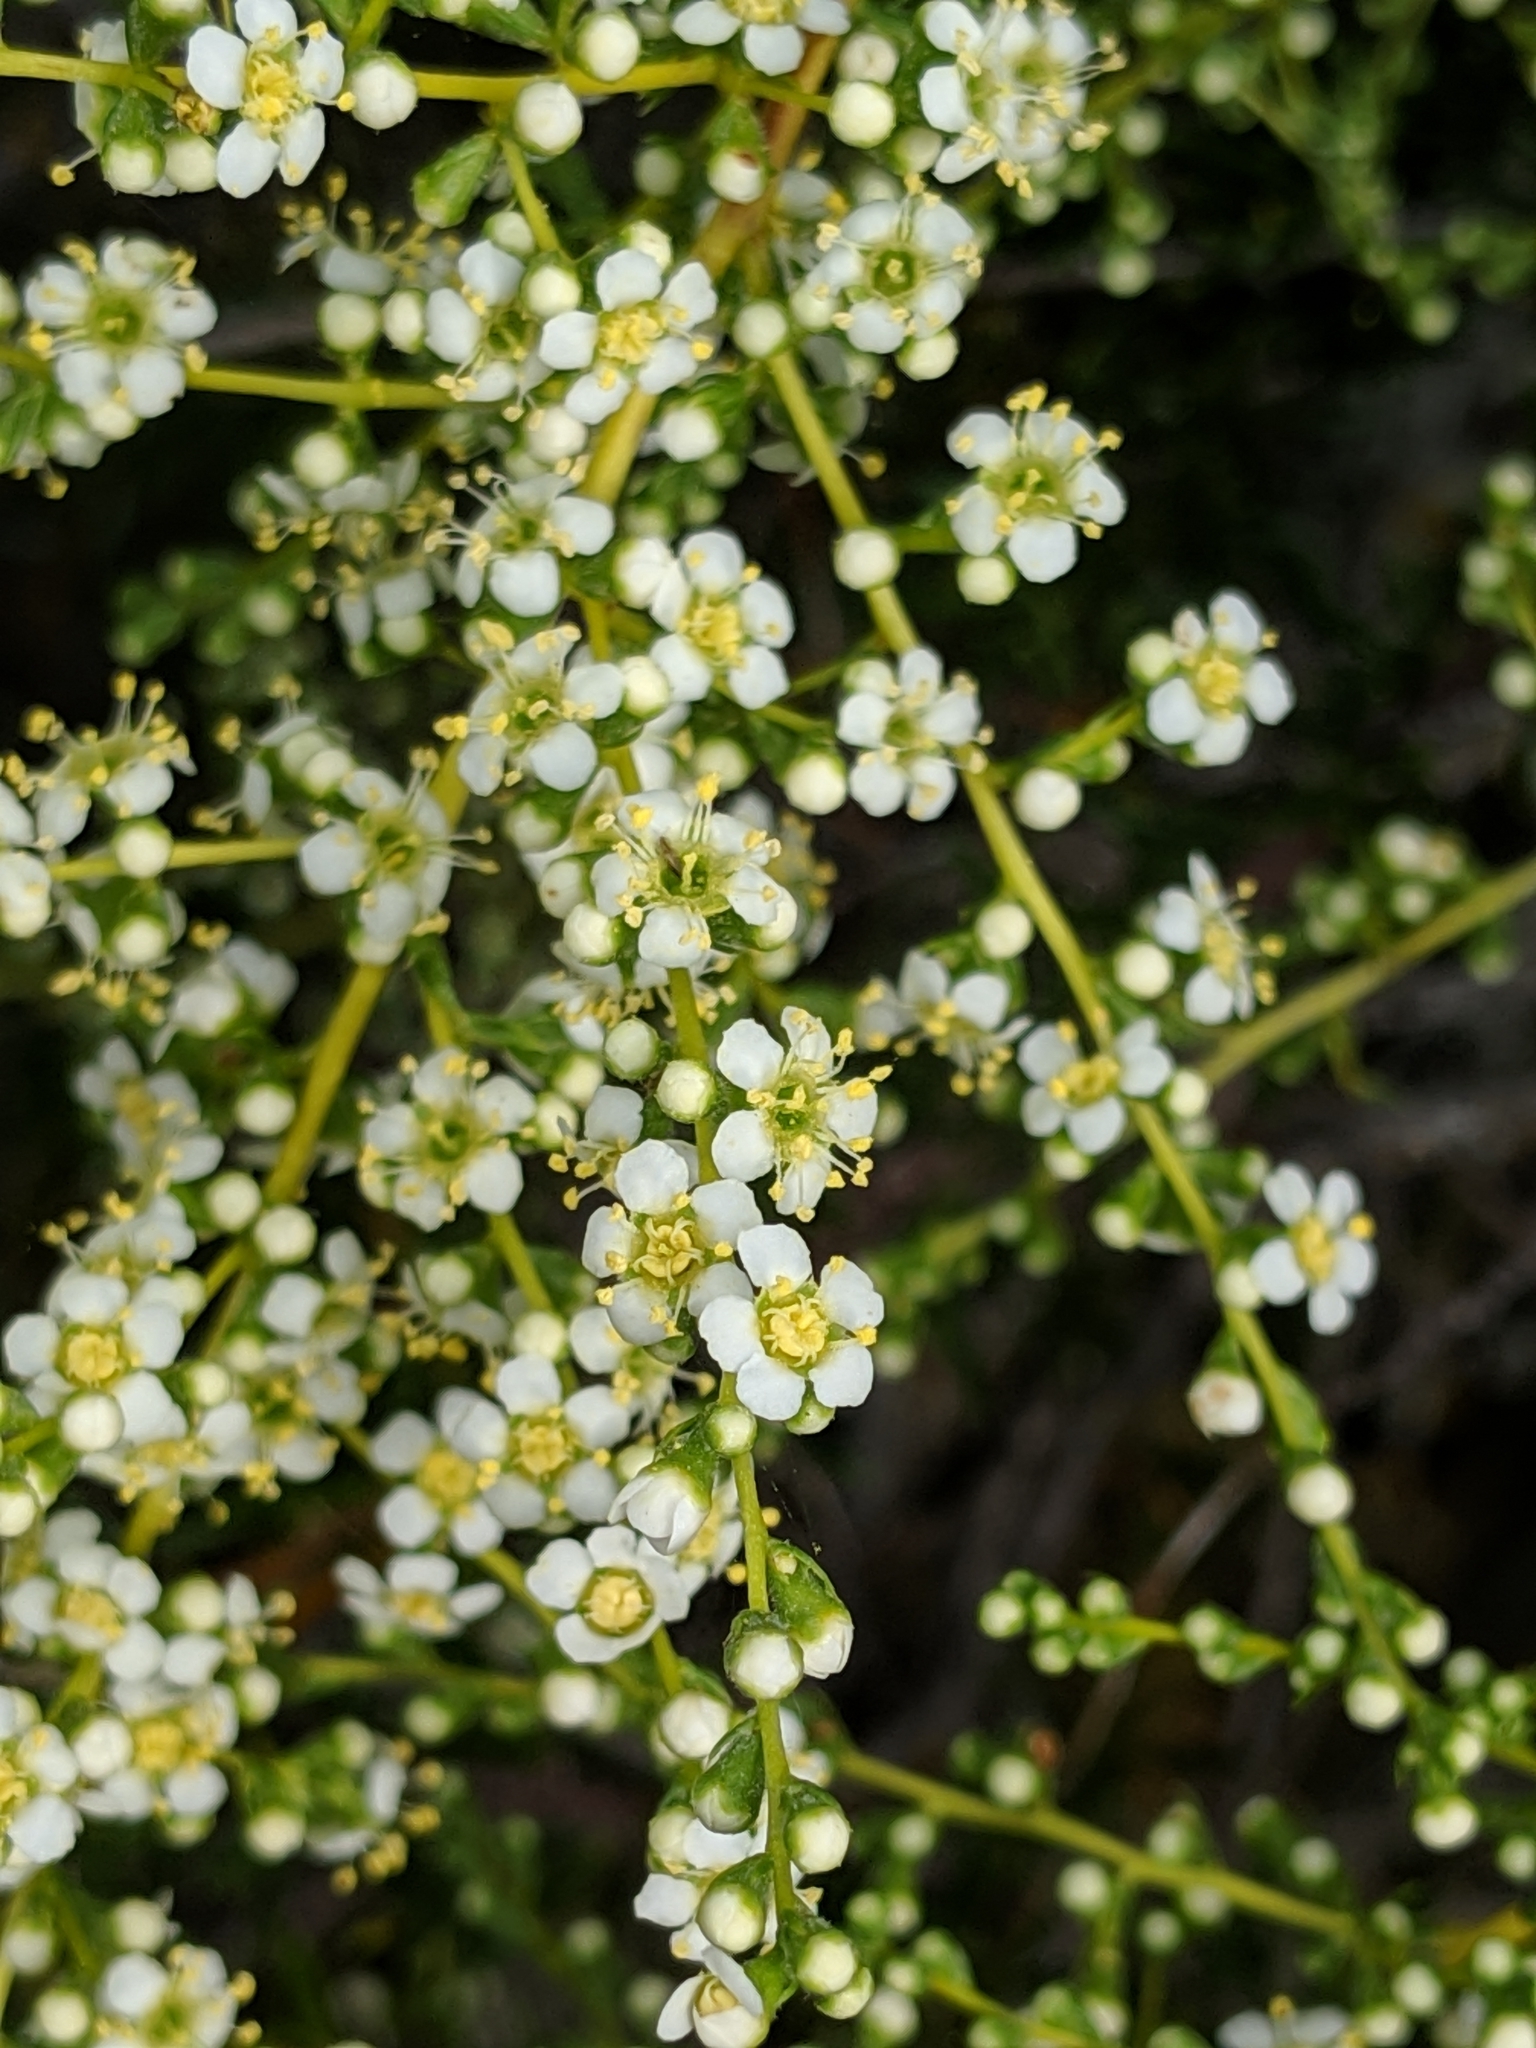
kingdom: Plantae
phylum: Tracheophyta
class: Magnoliopsida
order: Rosales
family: Rosaceae
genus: Adenostoma
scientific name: Adenostoma fasciculatum
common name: Chamise
